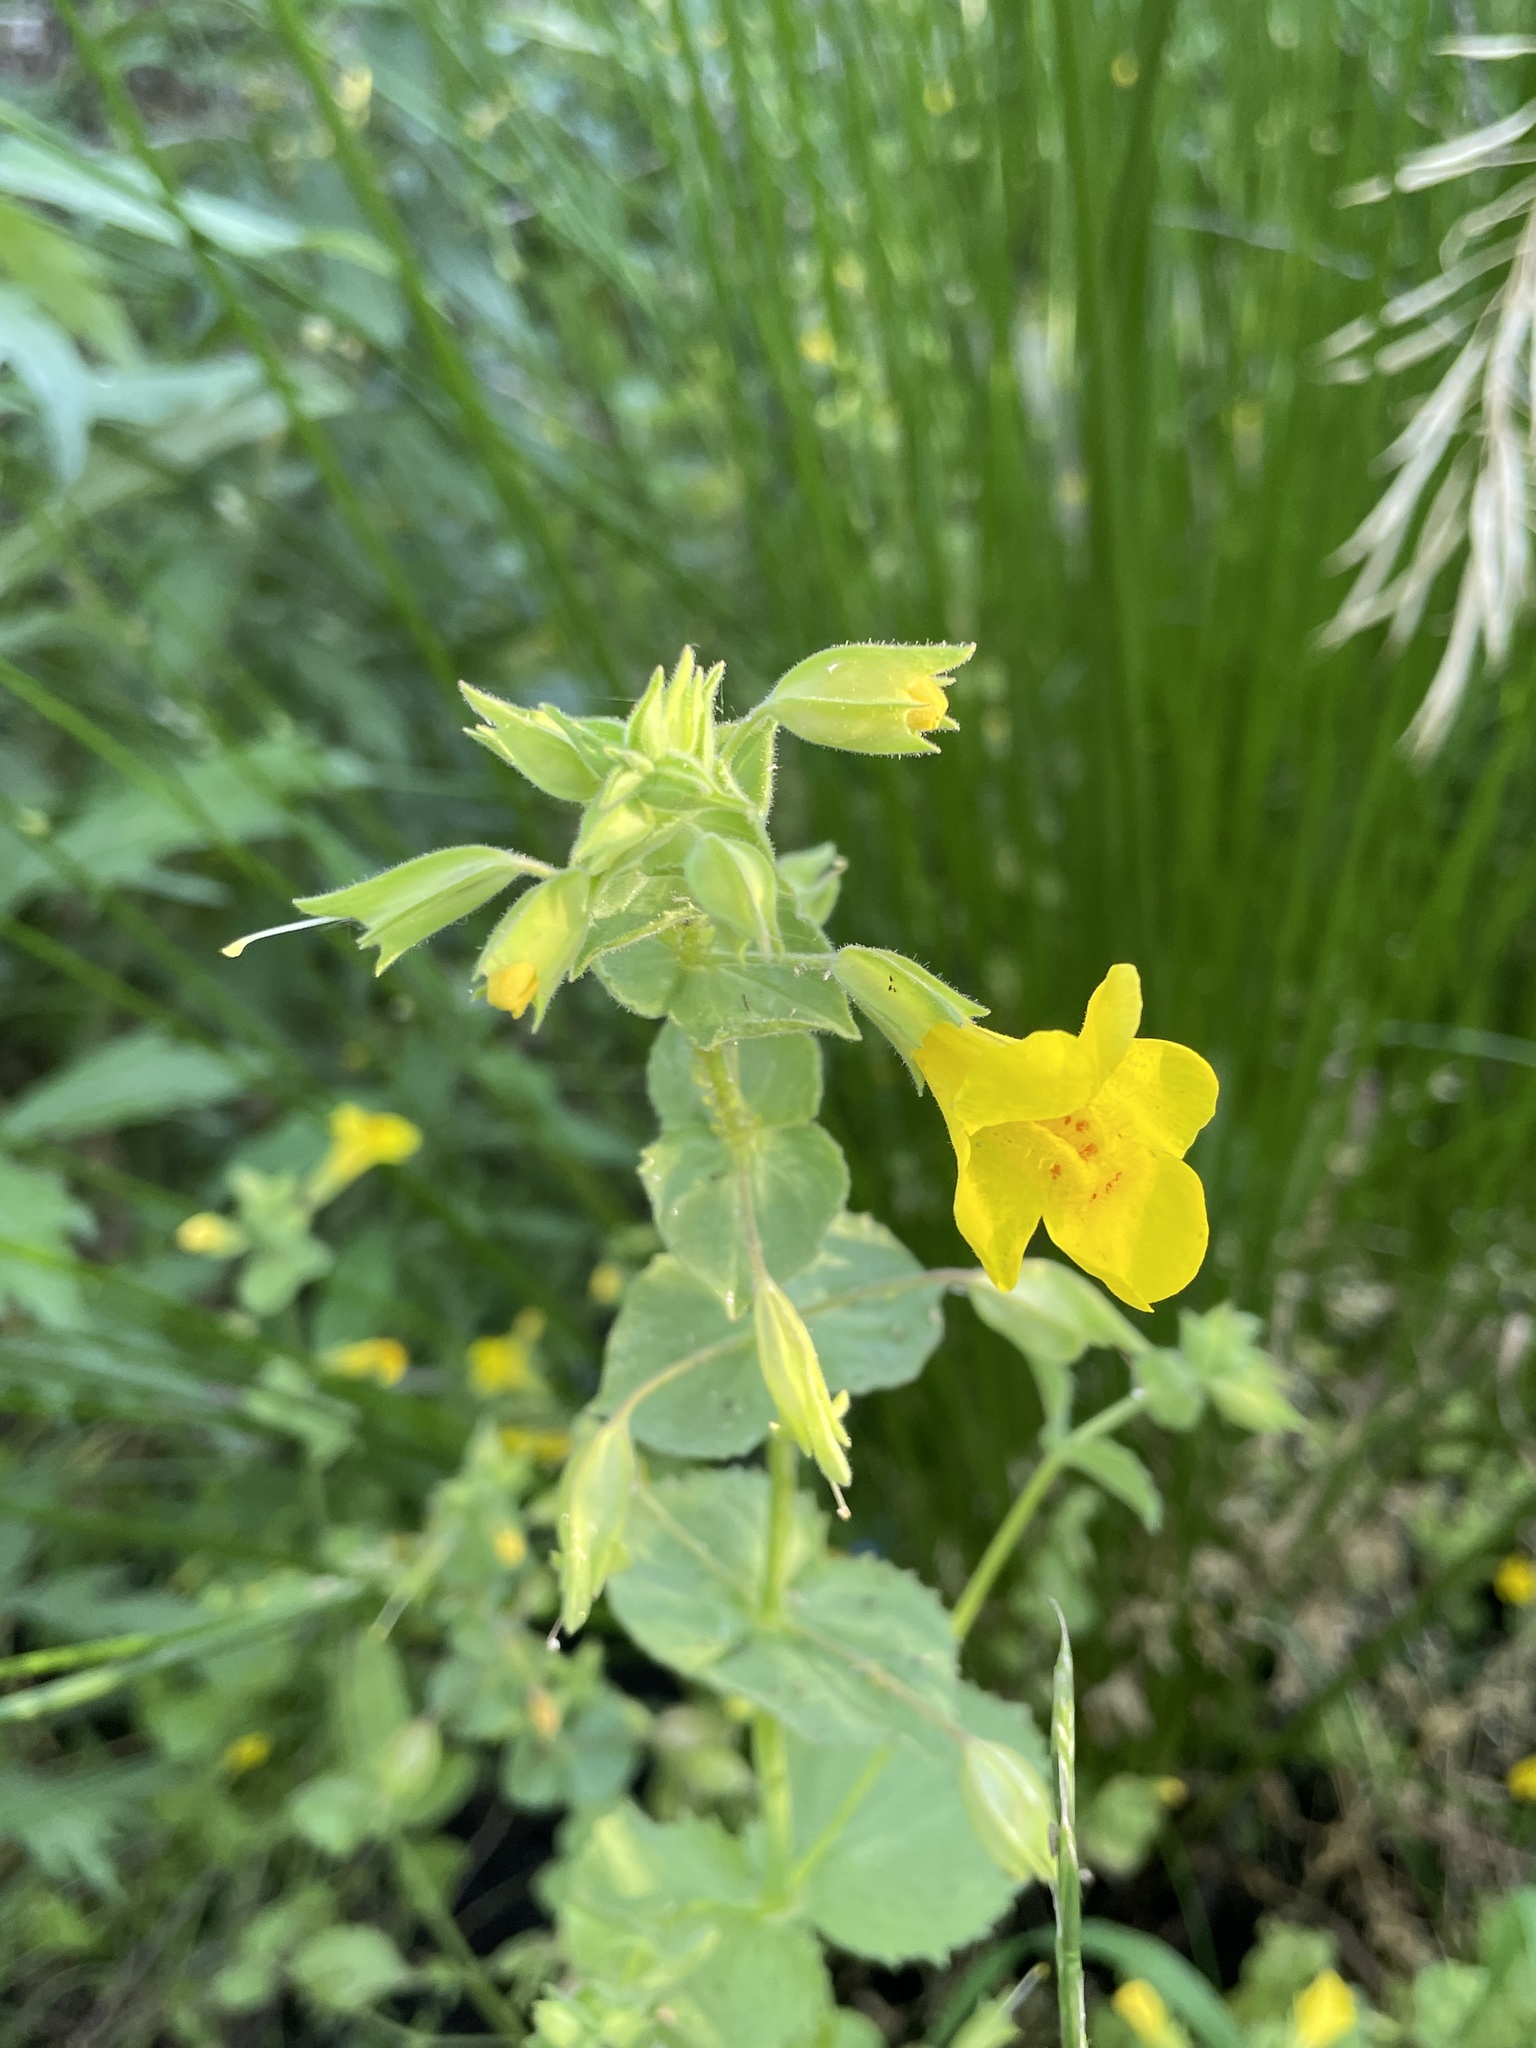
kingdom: Plantae
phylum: Tracheophyta
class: Magnoliopsida
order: Lamiales
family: Phrymaceae
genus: Erythranthe
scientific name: Erythranthe guttata
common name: Monkeyflower
